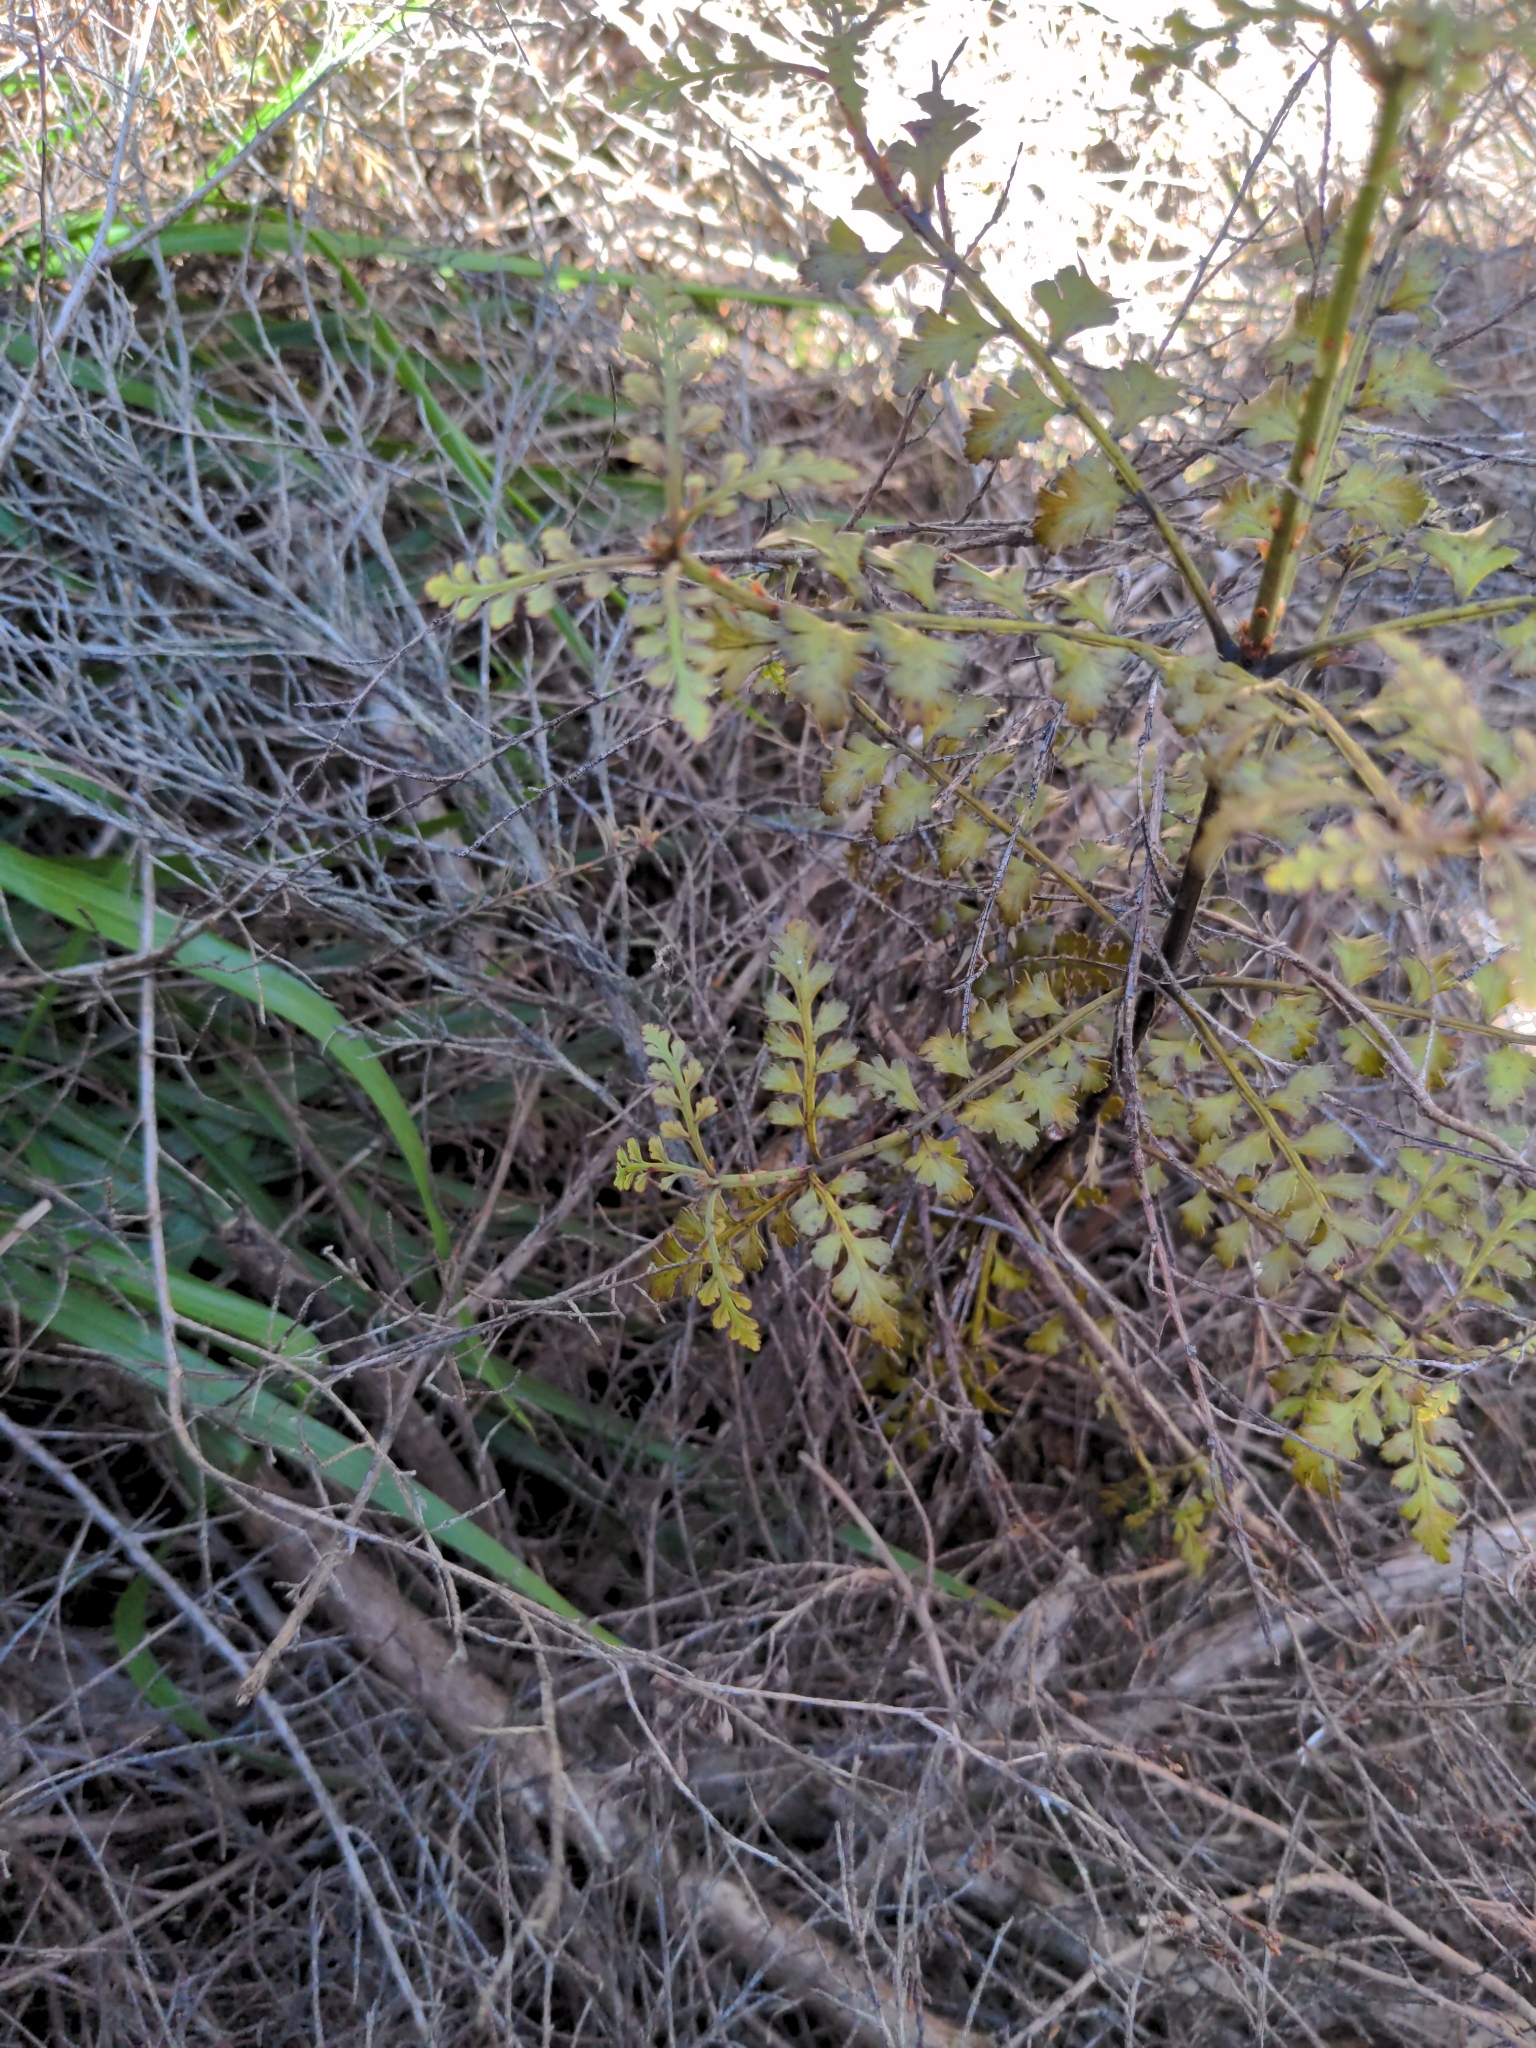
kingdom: Plantae
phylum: Tracheophyta
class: Pinopsida
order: Pinales
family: Phyllocladaceae
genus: Phyllocladus
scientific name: Phyllocladus trichomanoides
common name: Celery pine
